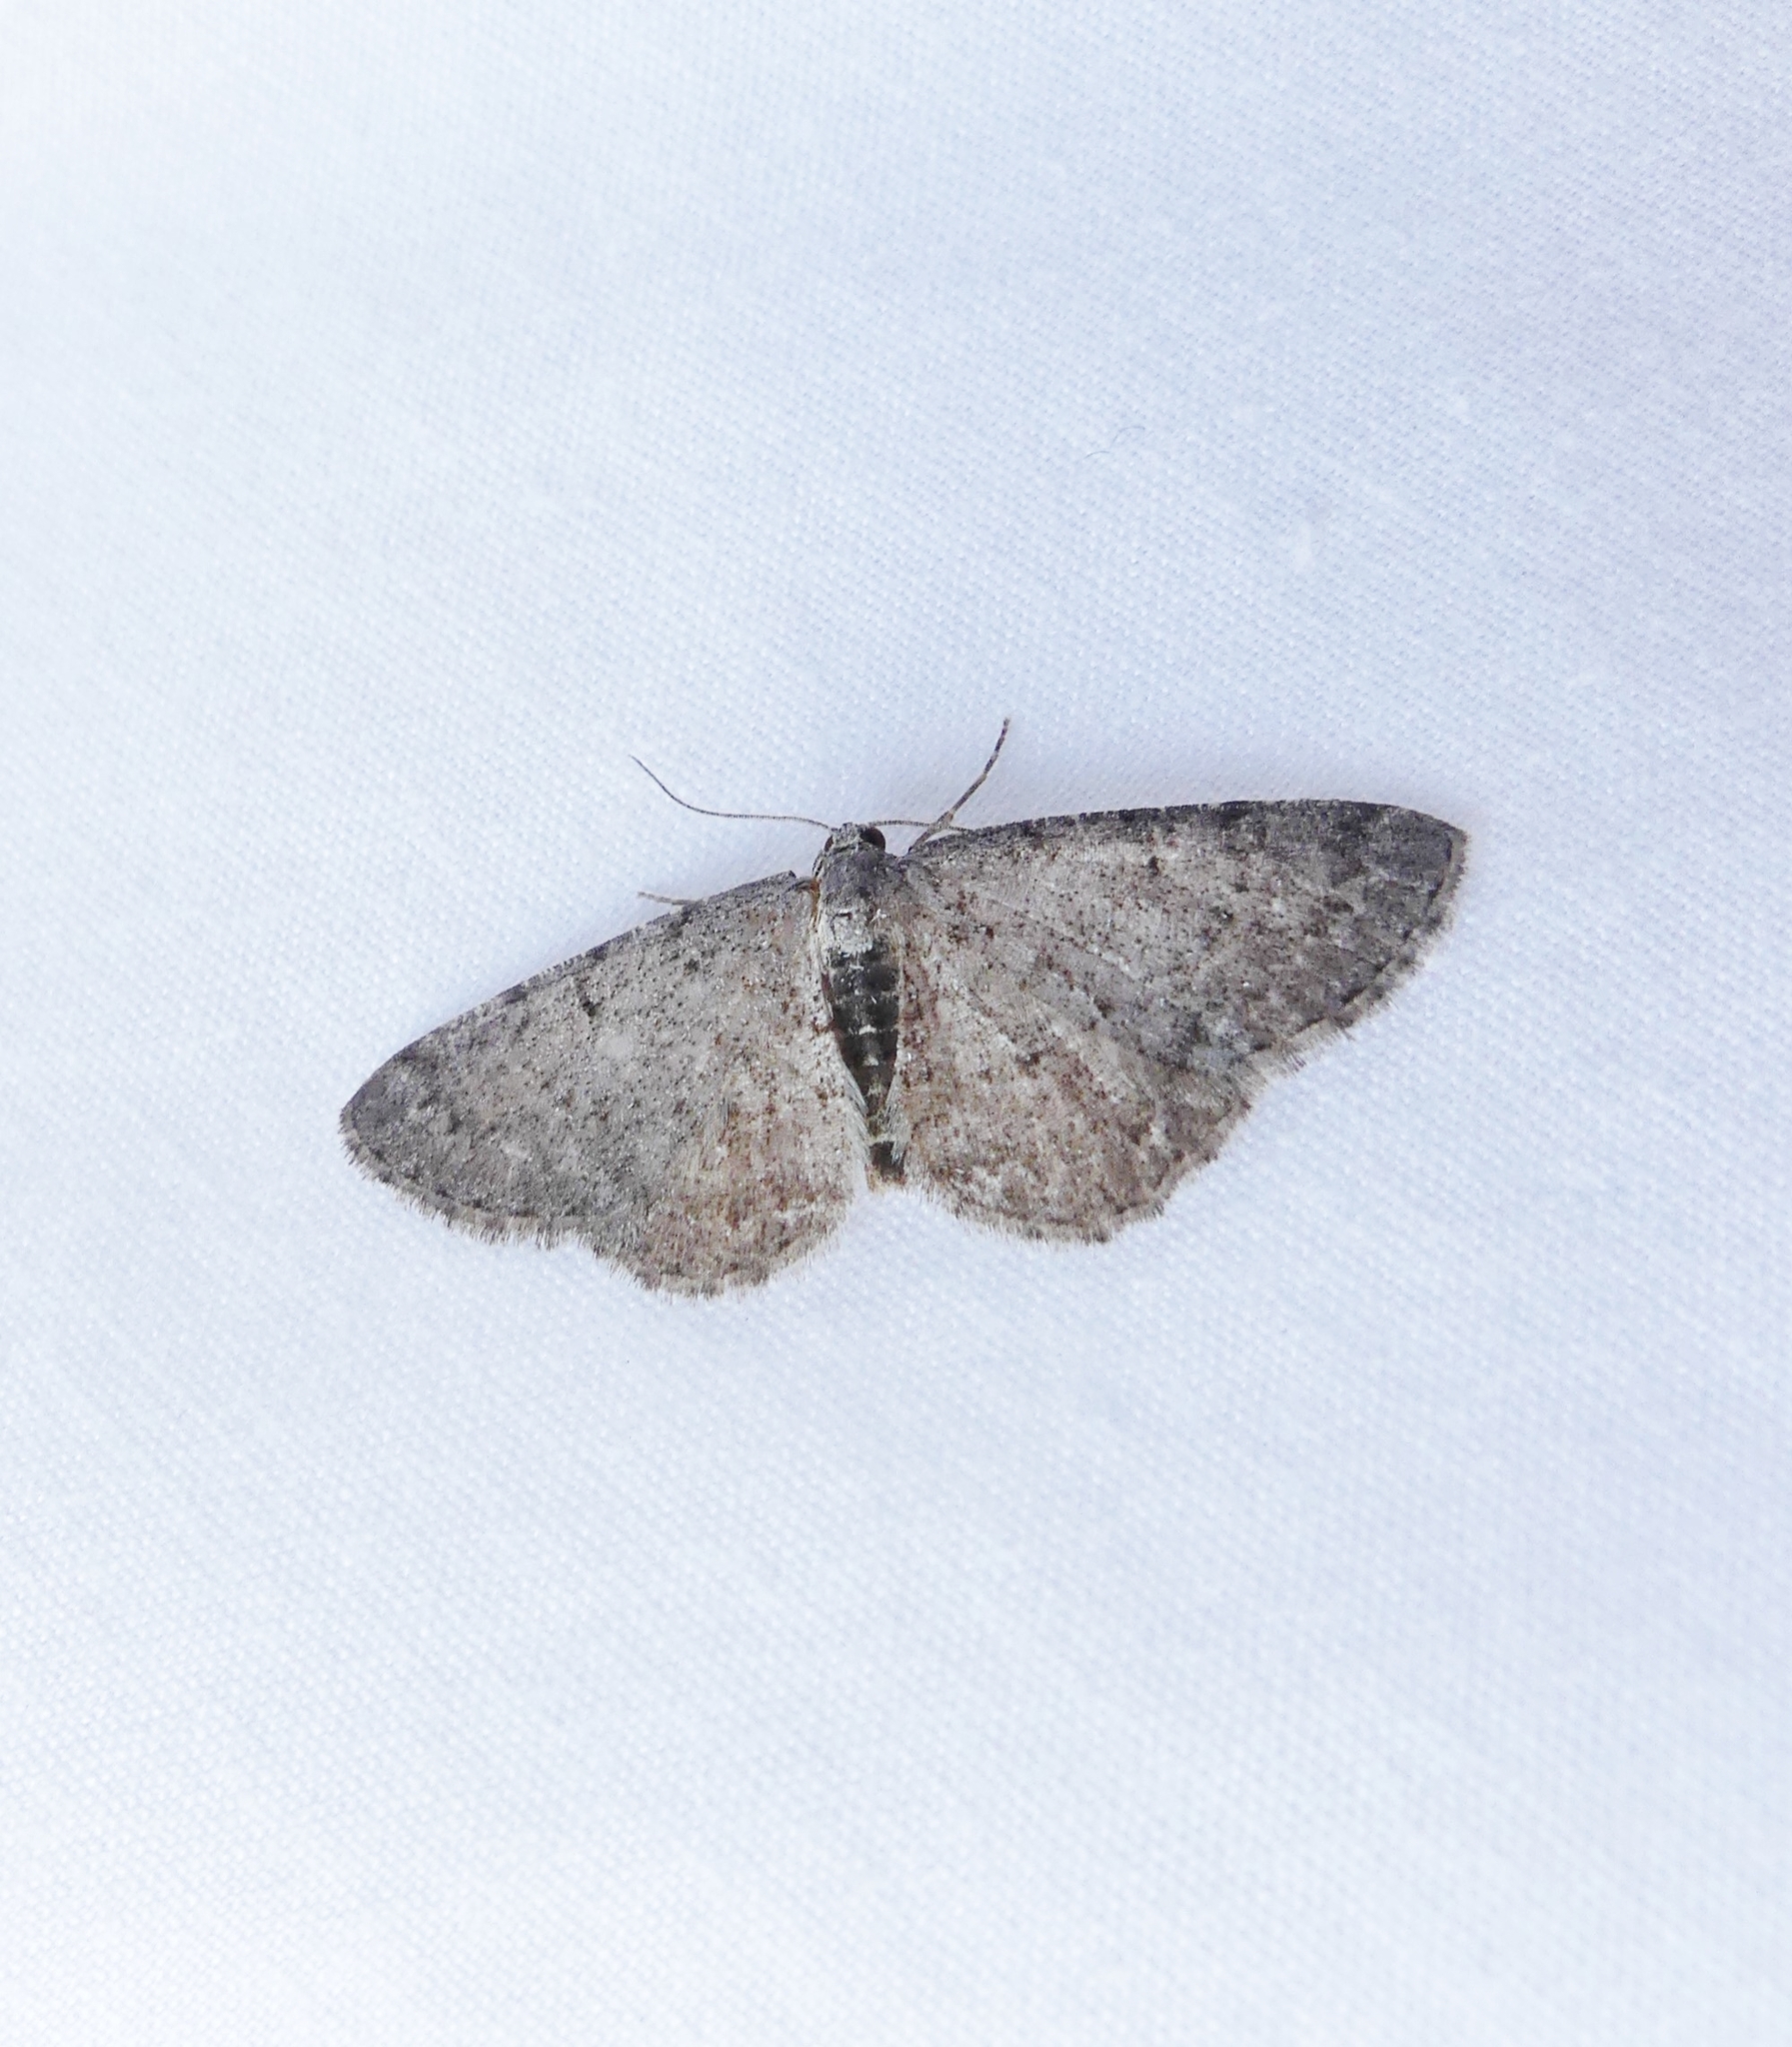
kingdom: Animalia
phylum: Arthropoda
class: Insecta
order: Lepidoptera
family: Geometridae
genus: Aethalura
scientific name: Aethalura intertexta
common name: Four-barred gray
